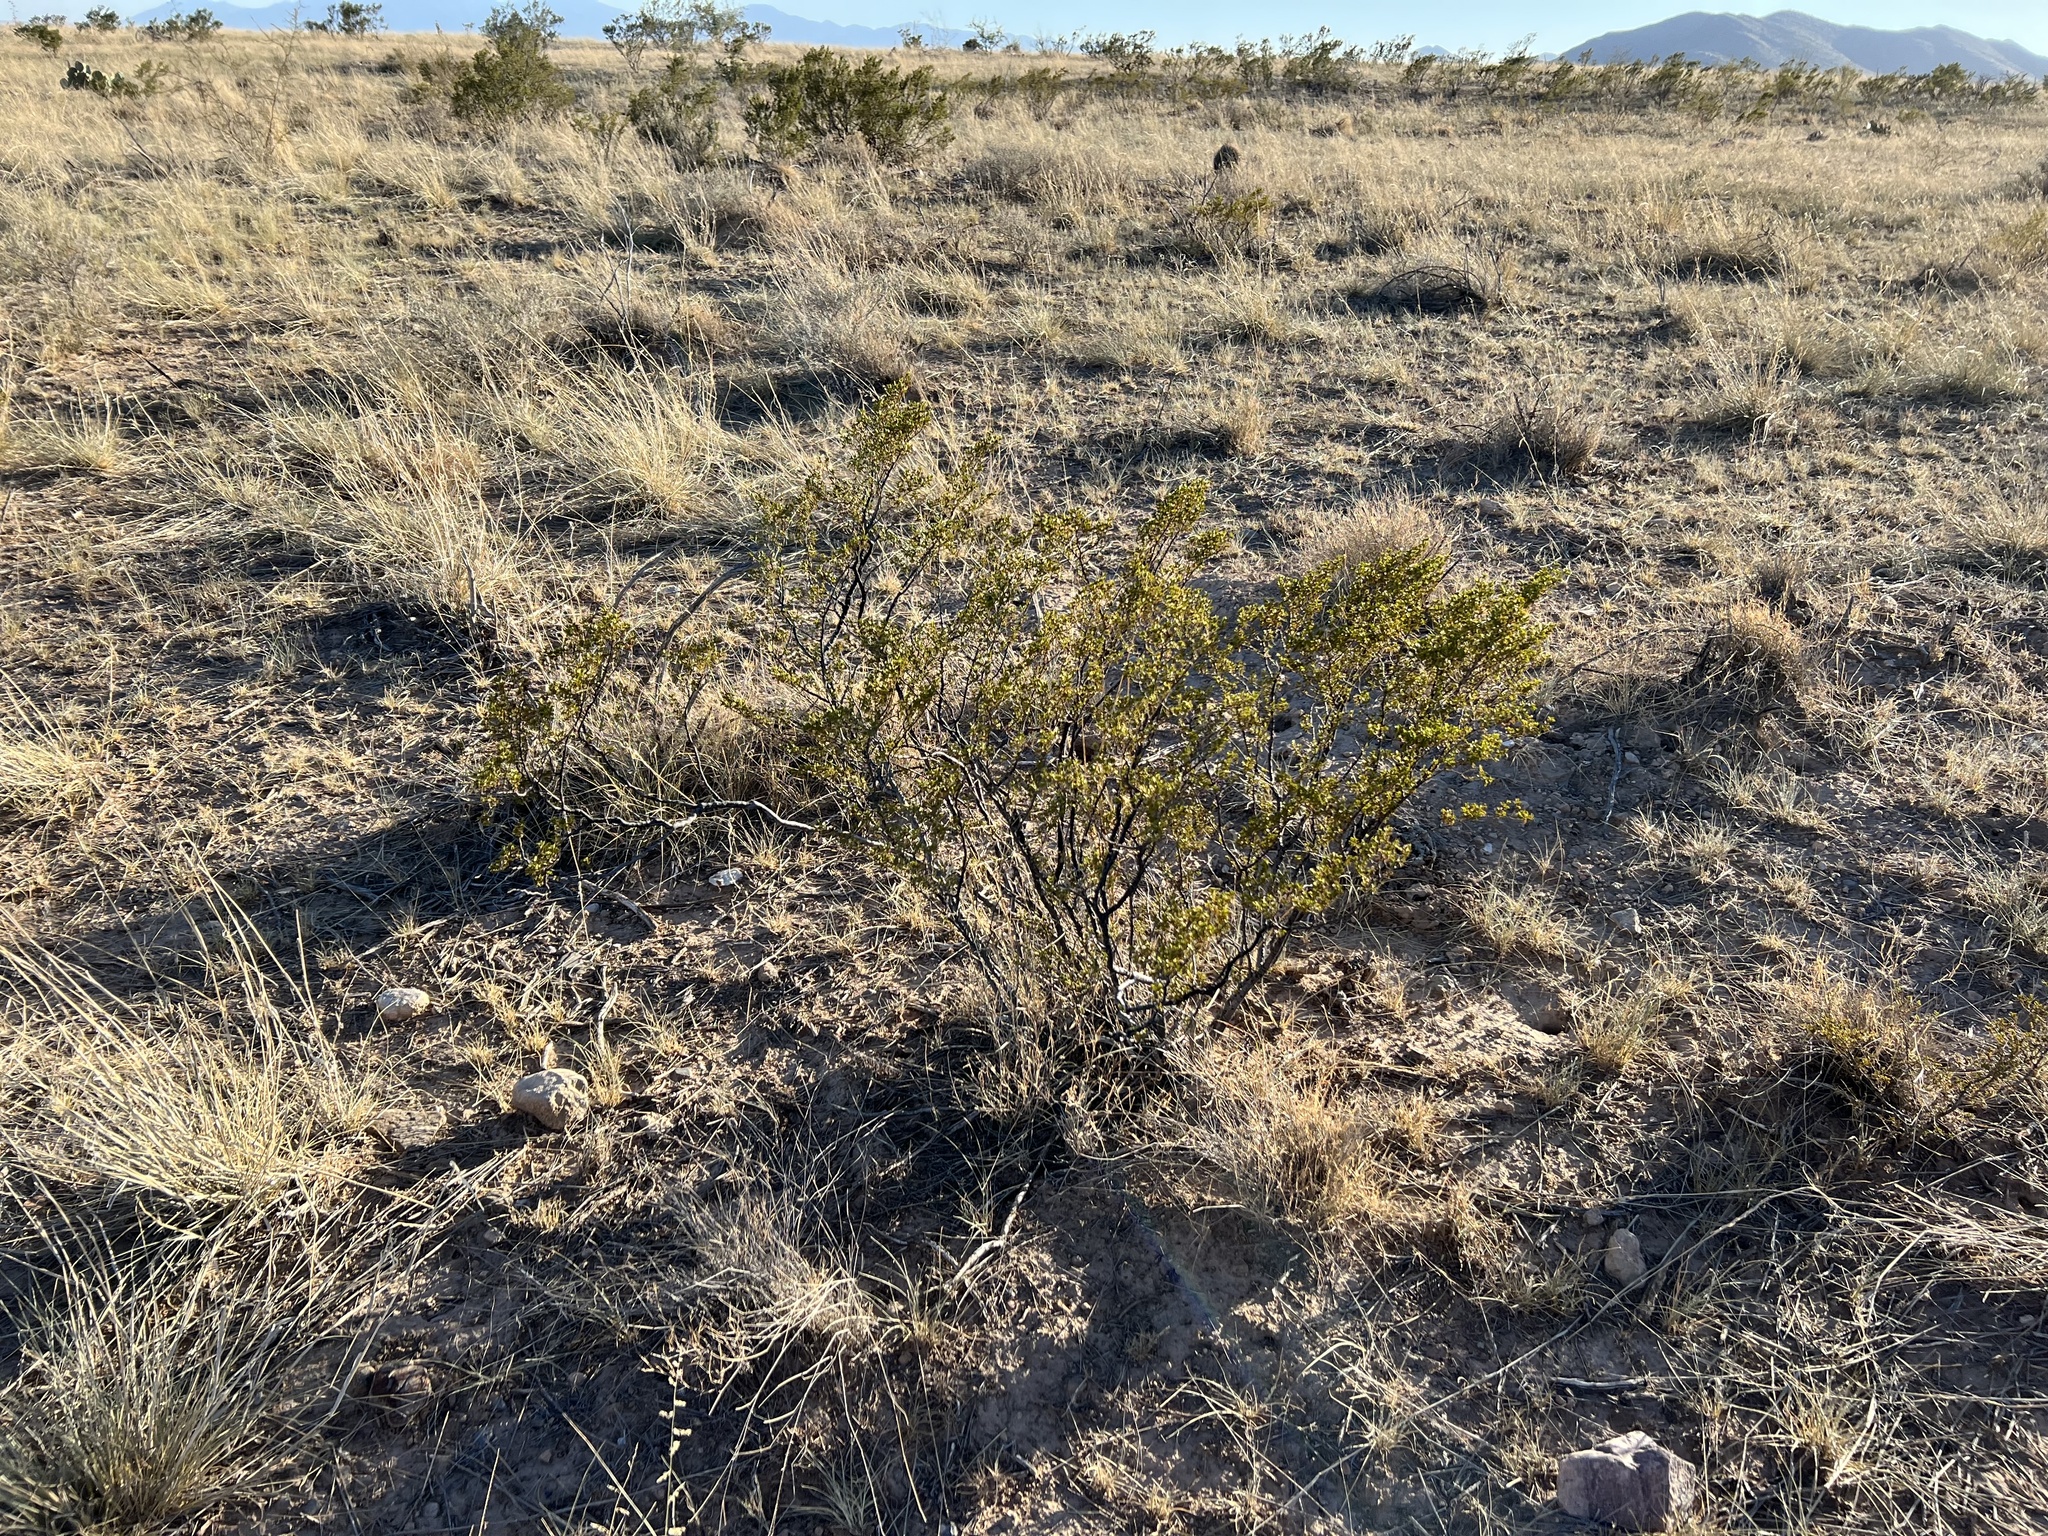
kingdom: Plantae
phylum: Tracheophyta
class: Magnoliopsida
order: Zygophyllales
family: Zygophyllaceae
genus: Larrea
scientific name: Larrea tridentata
